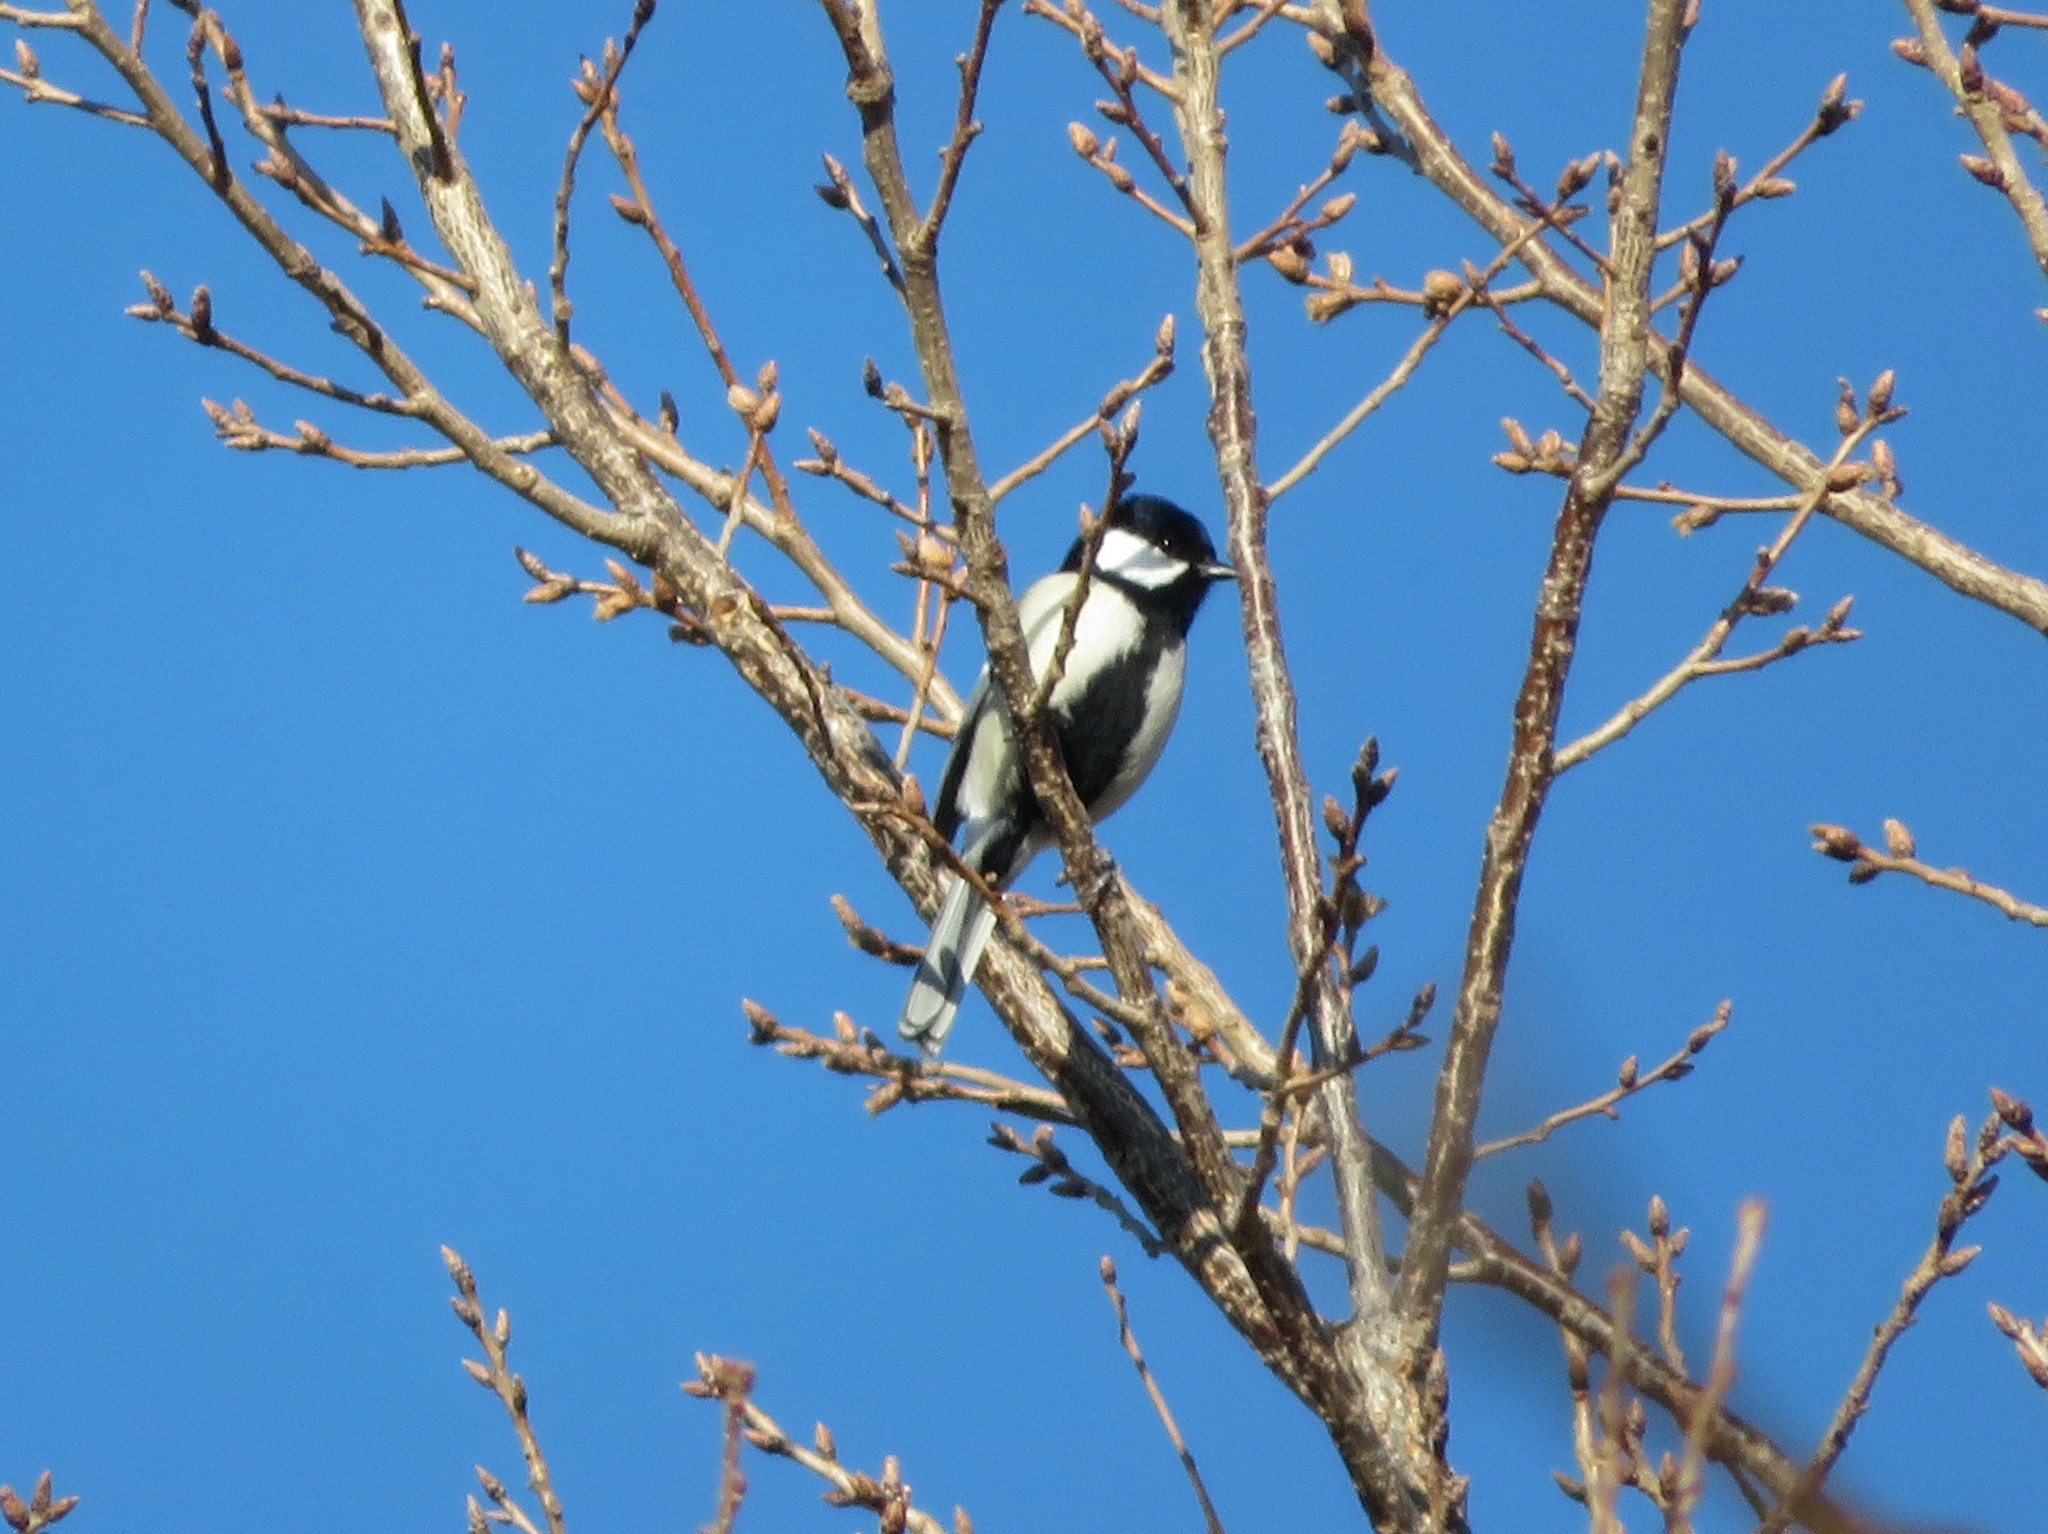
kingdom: Animalia
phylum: Chordata
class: Aves
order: Passeriformes
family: Paridae
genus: Parus
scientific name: Parus minor
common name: Japanese tit
